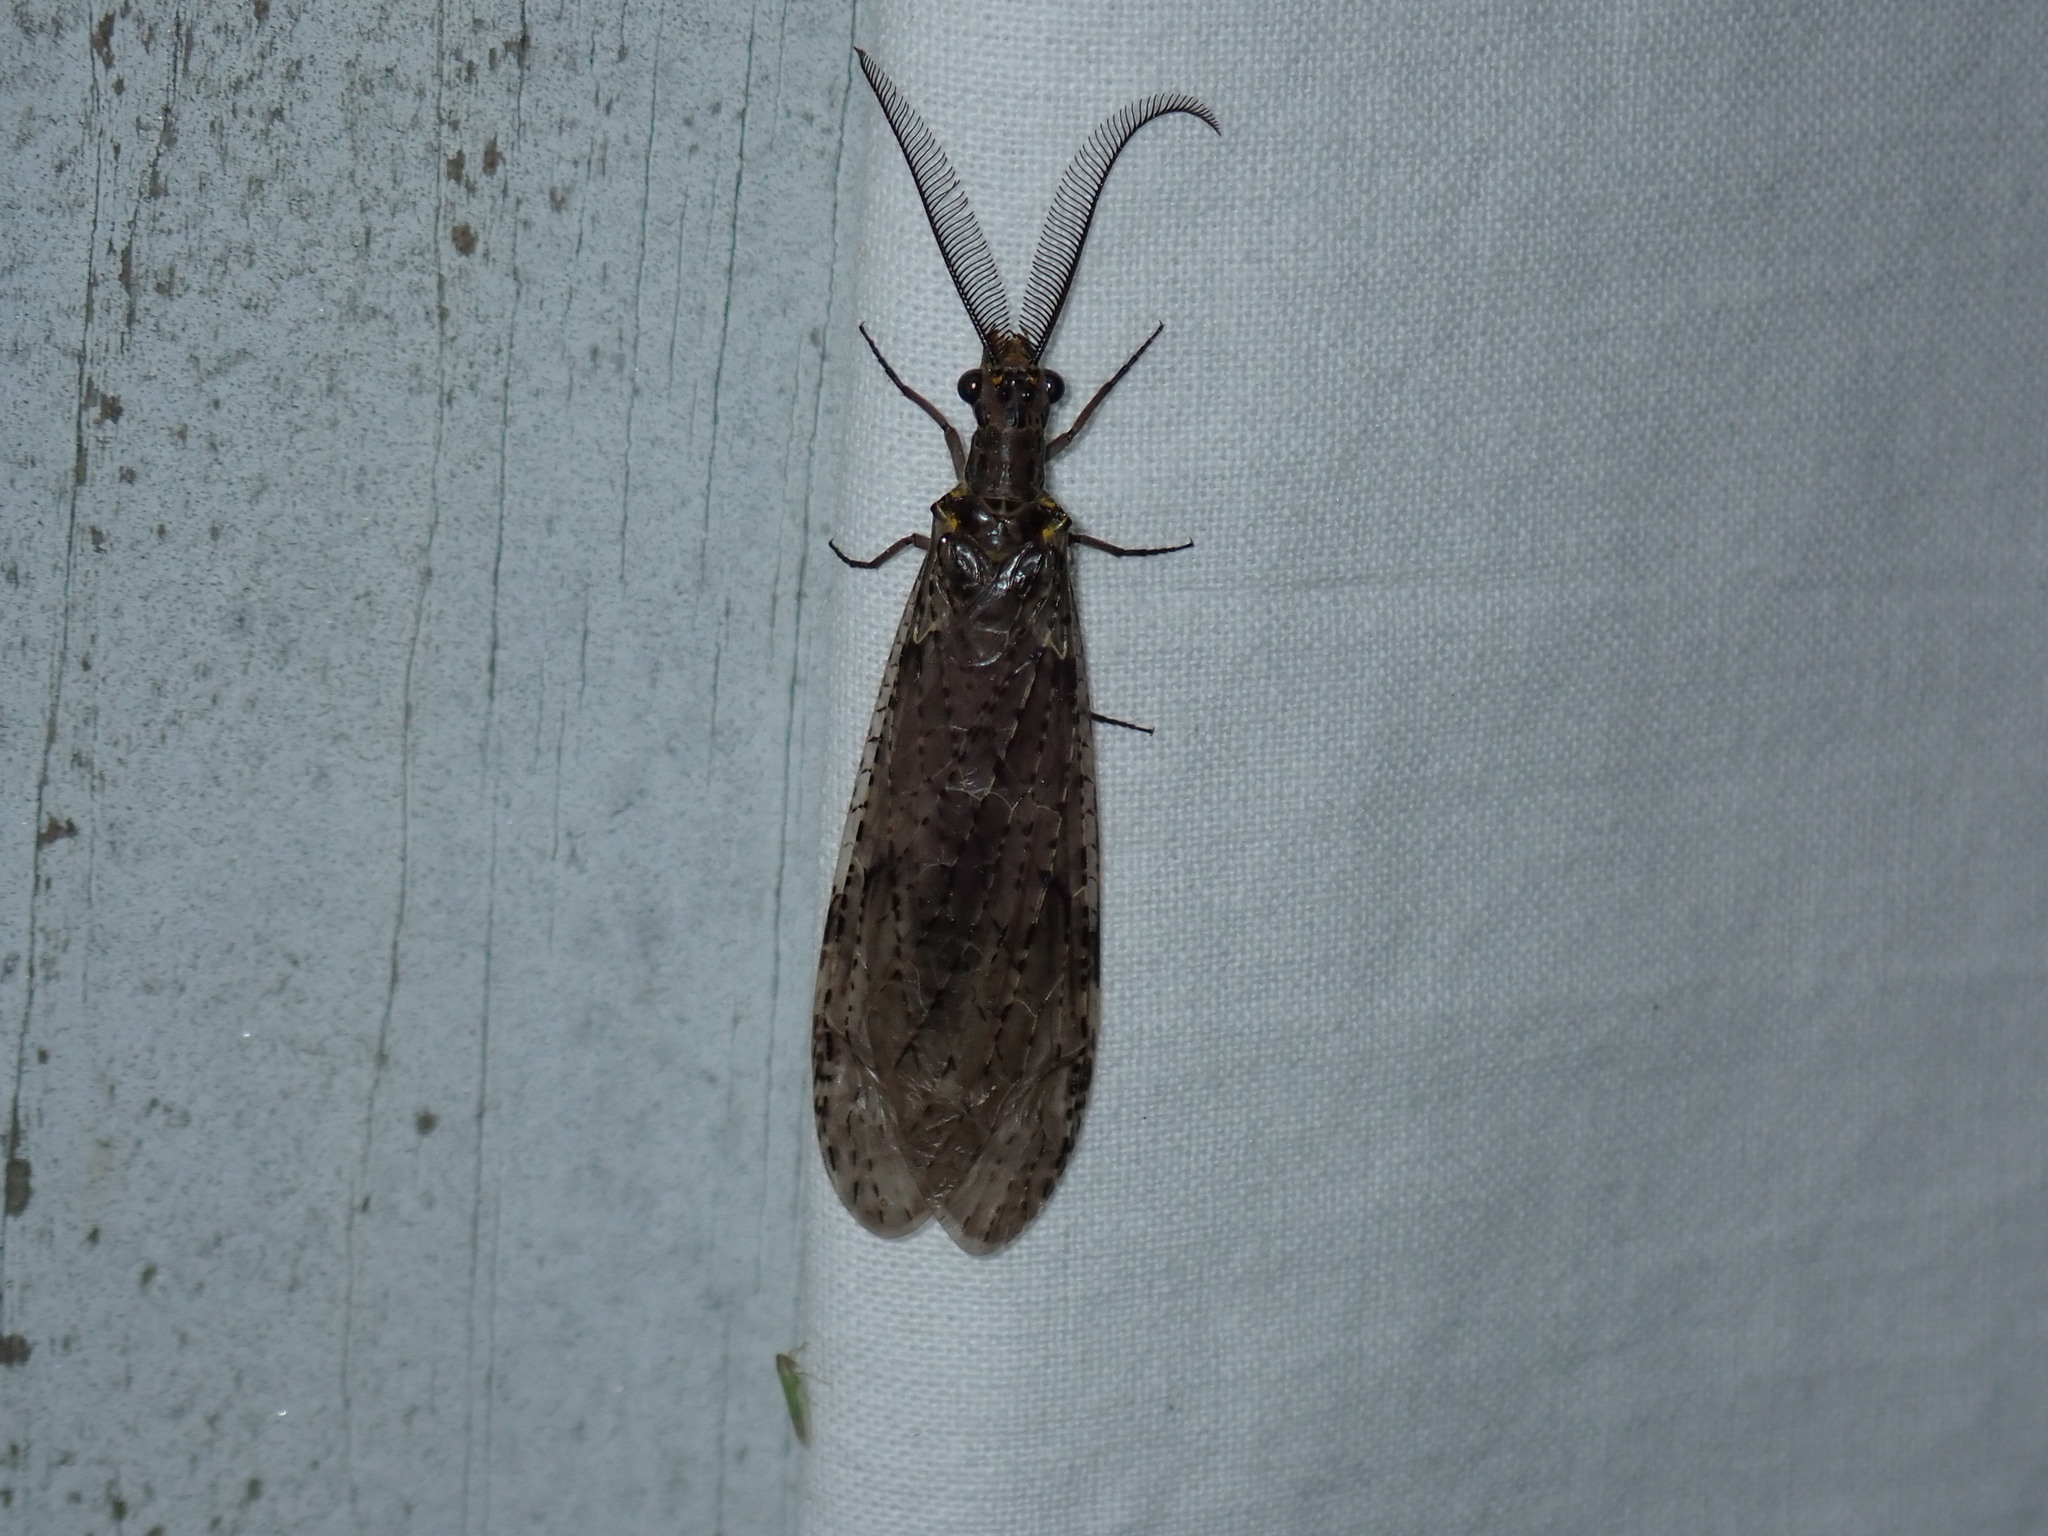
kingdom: Animalia
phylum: Arthropoda
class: Insecta
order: Megaloptera
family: Corydalidae
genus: Chauliodes
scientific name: Chauliodes rastricornis
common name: Spring fishfly
